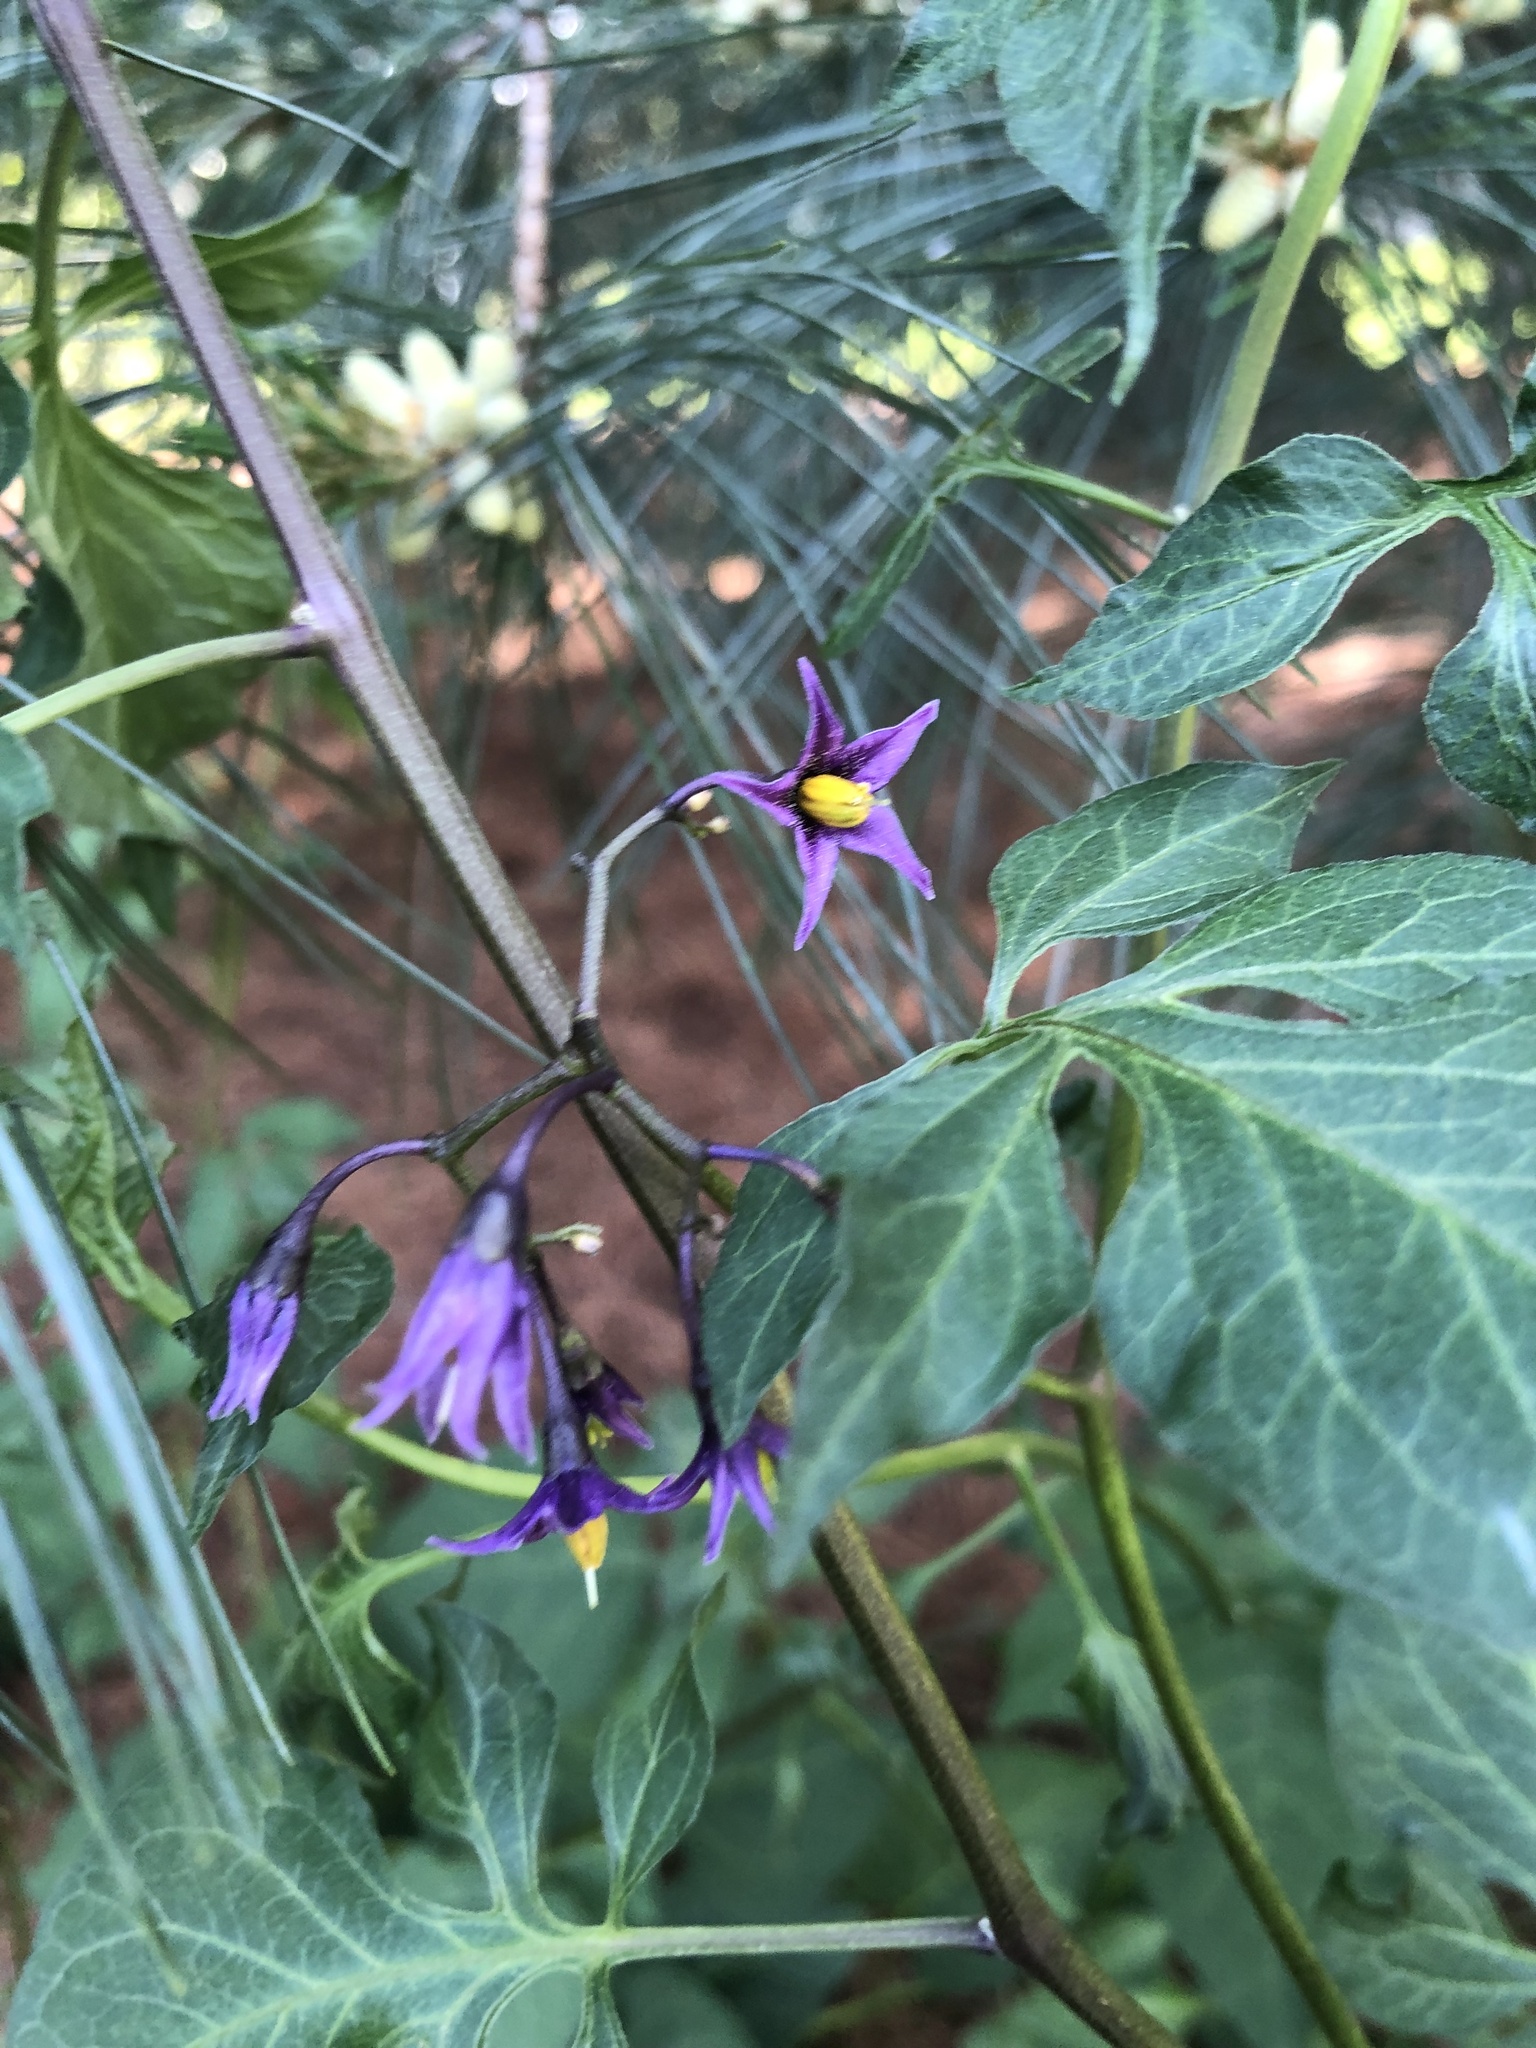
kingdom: Plantae
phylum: Tracheophyta
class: Magnoliopsida
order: Solanales
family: Solanaceae
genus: Solanum
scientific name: Solanum dulcamara
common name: Climbing nightshade
